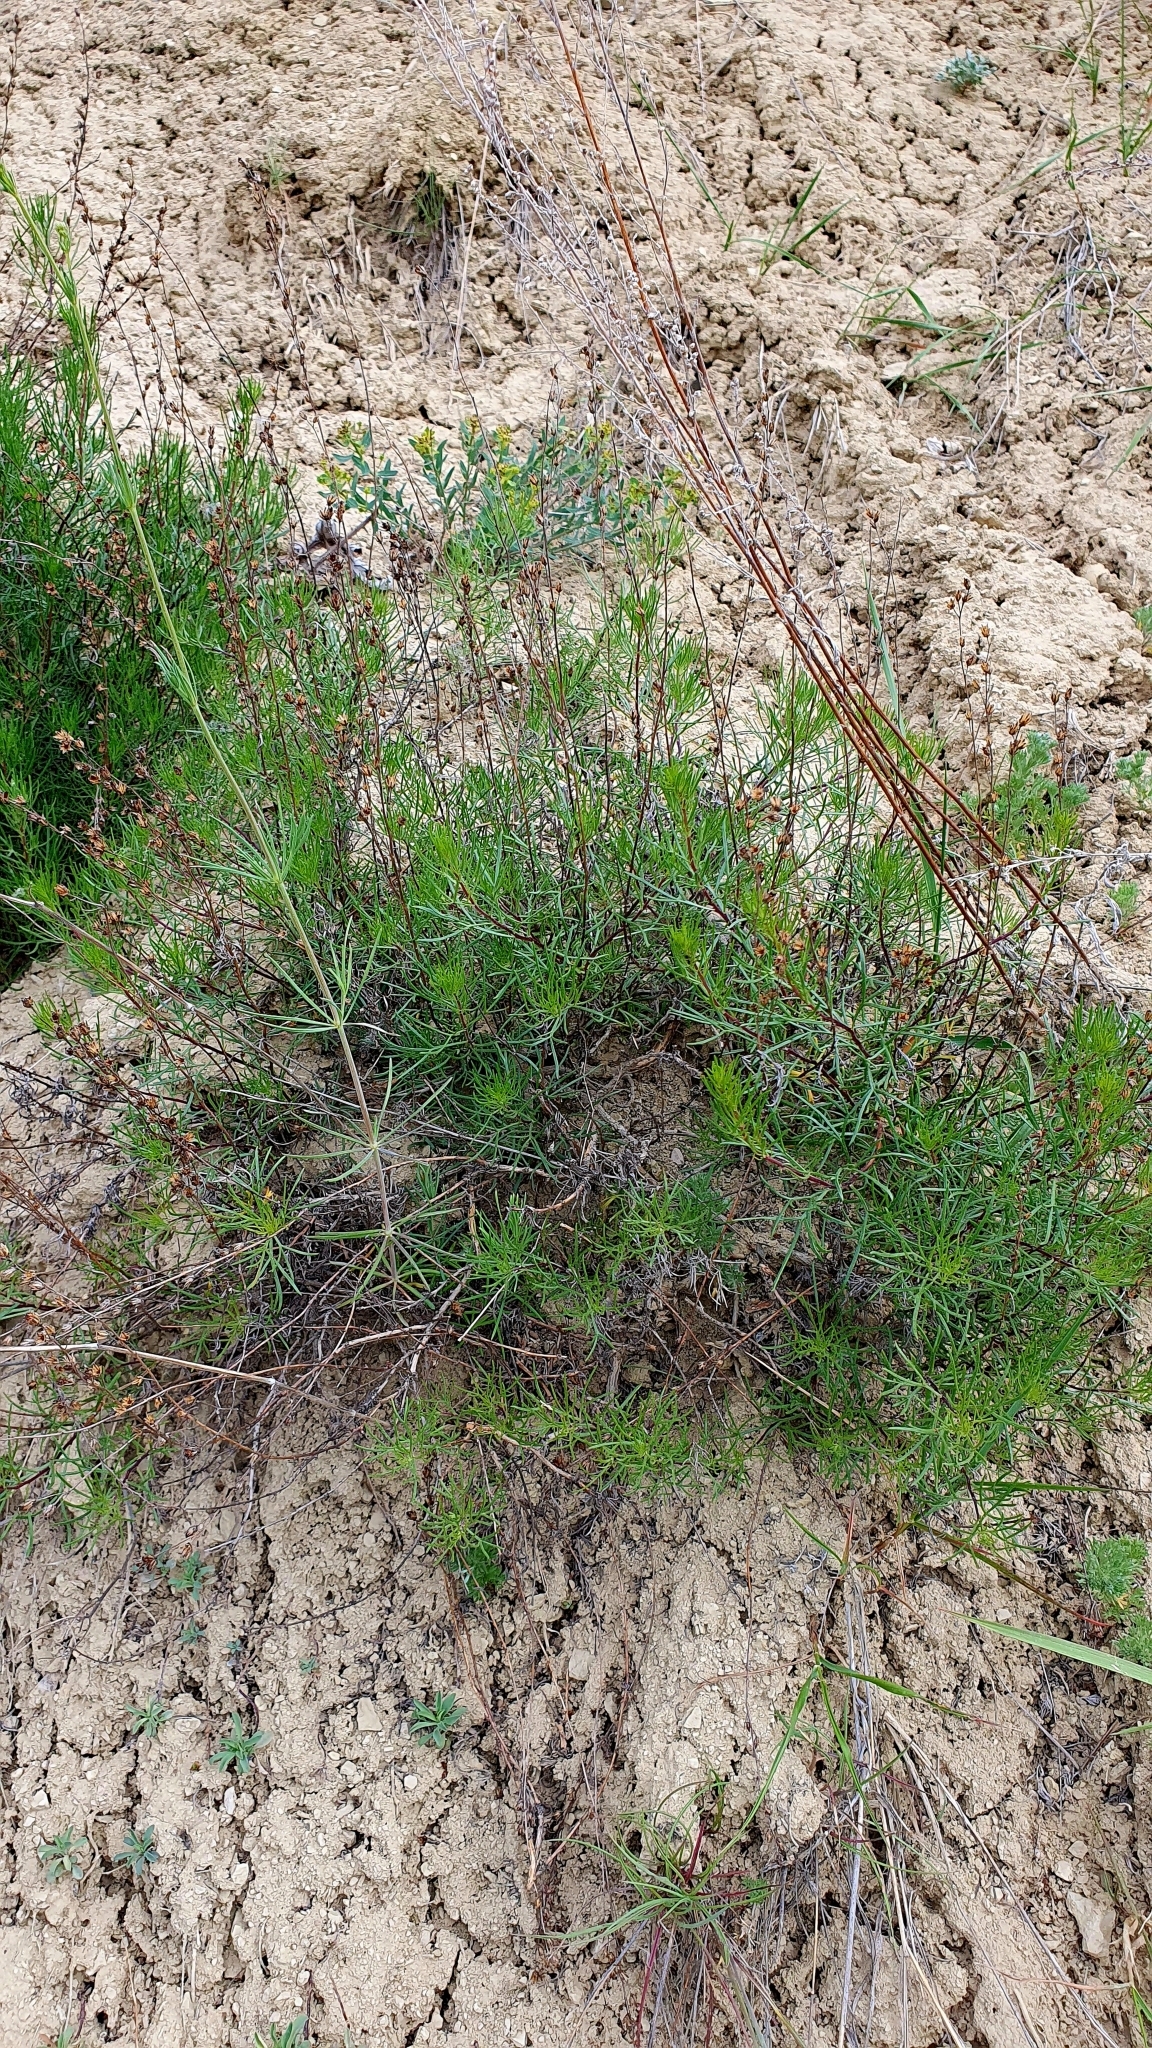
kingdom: Plantae
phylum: Tracheophyta
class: Magnoliopsida
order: Asterales
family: Asteraceae
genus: Artemisia
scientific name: Artemisia salsoloides
